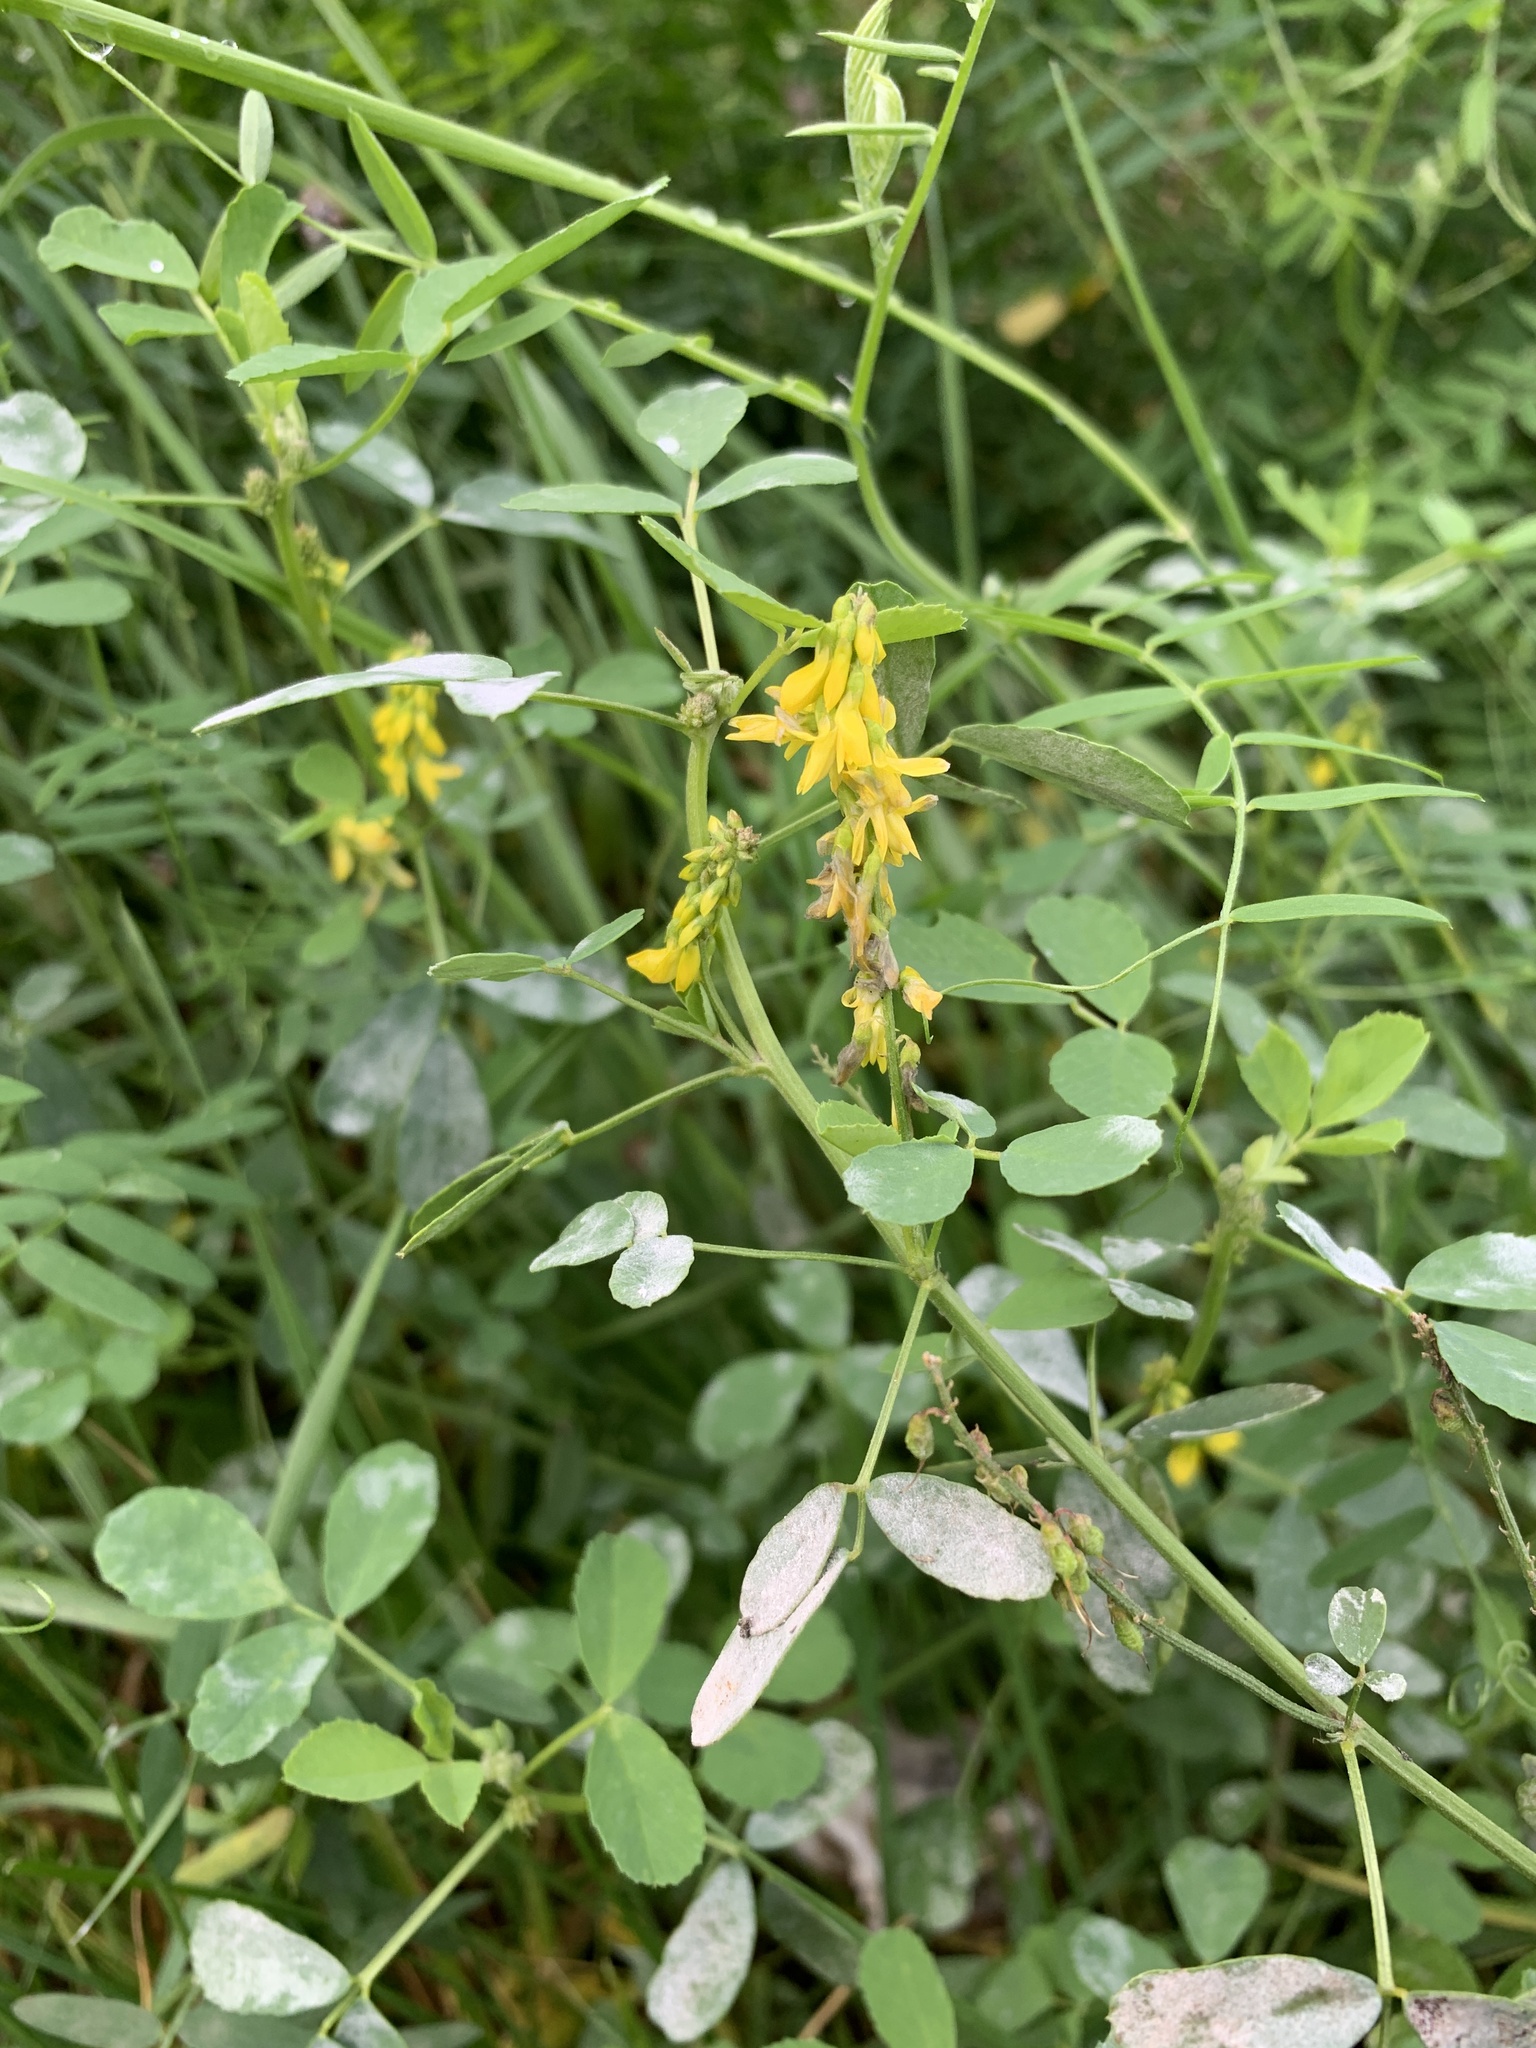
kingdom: Plantae
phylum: Tracheophyta
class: Magnoliopsida
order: Fabales
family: Fabaceae
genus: Melilotus
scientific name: Melilotus officinalis
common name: Sweetclover
